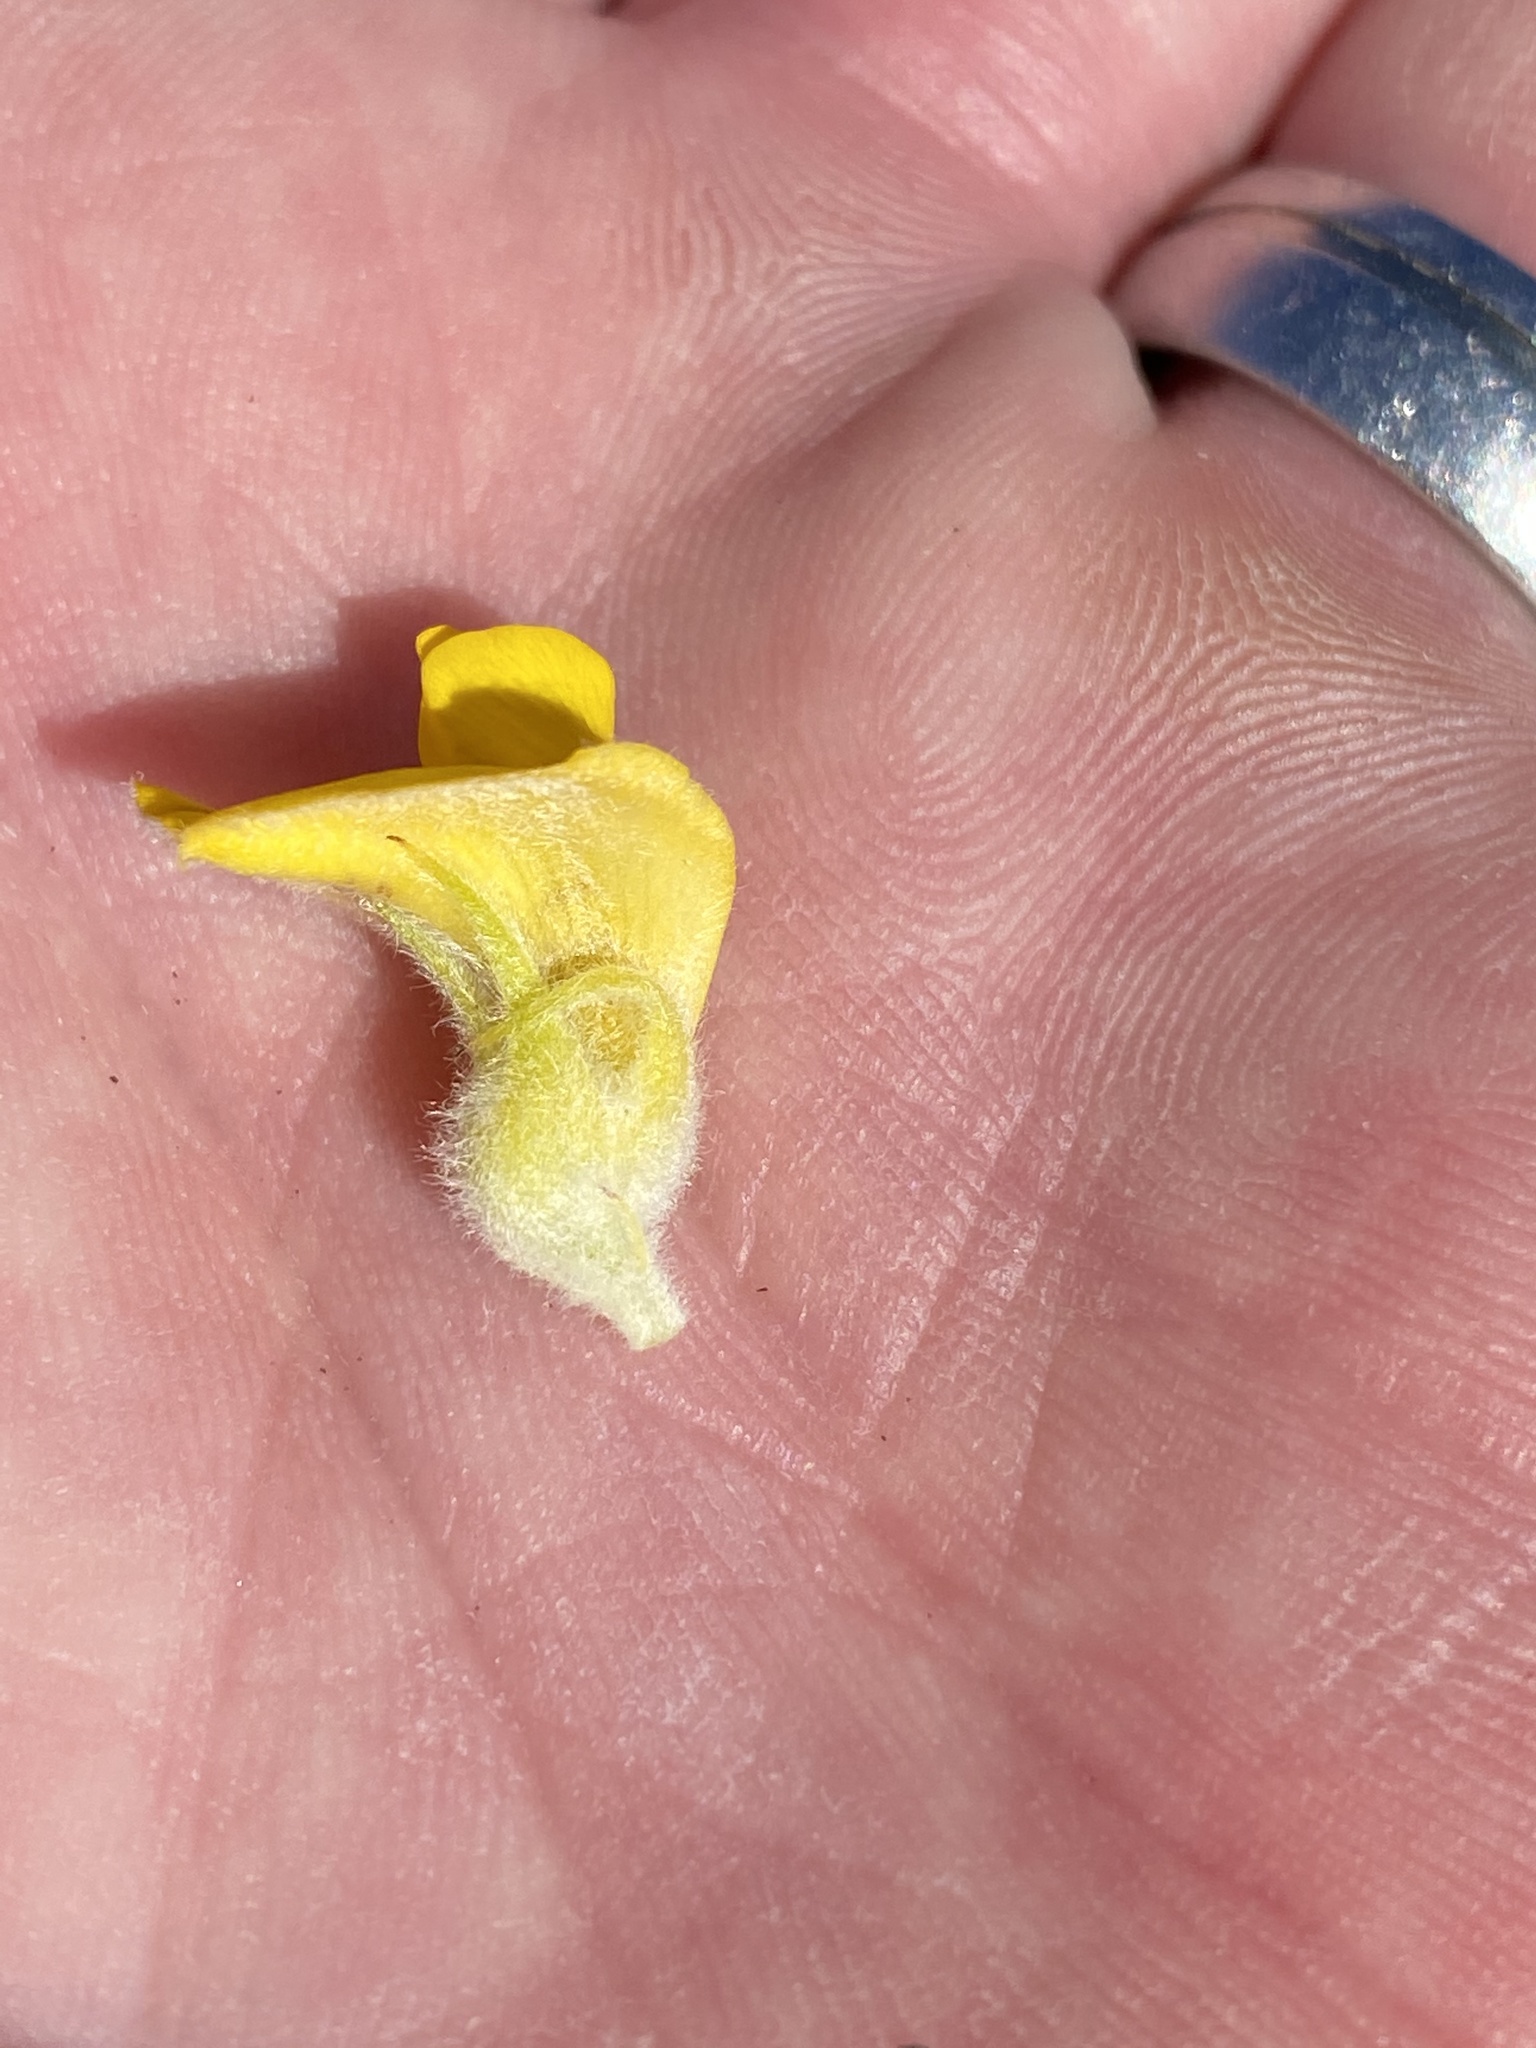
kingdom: Plantae
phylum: Tracheophyta
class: Magnoliopsida
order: Fabales
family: Fabaceae
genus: Aspalathus
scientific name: Aspalathus acanthes
